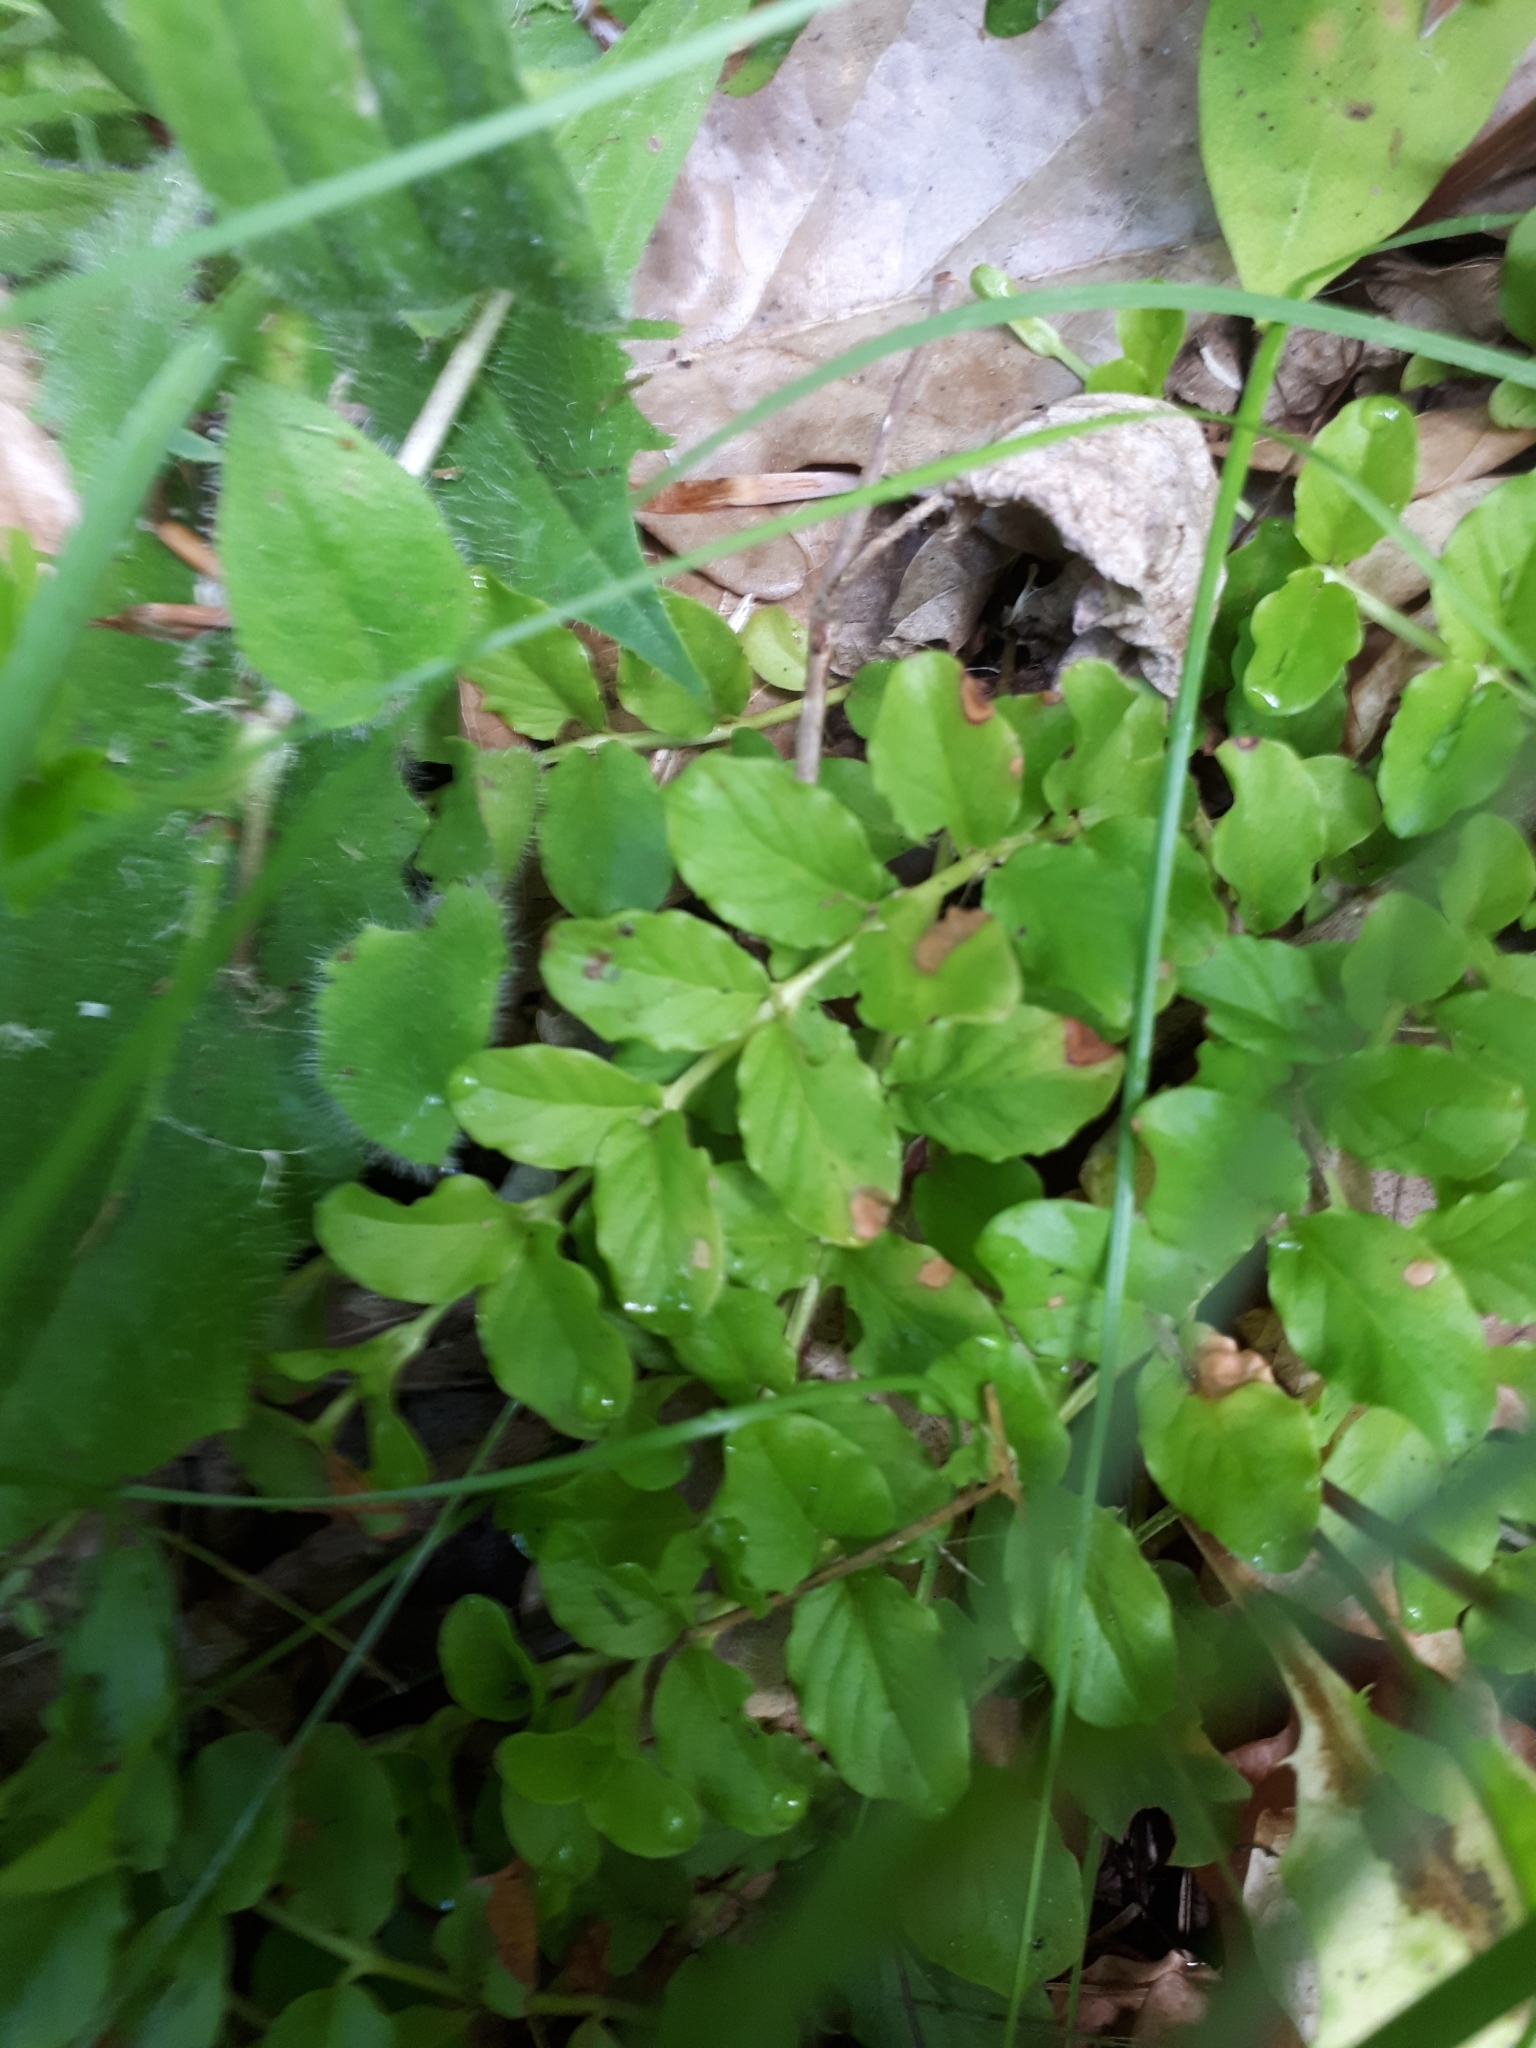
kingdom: Plantae
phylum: Tracheophyta
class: Magnoliopsida
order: Ericales
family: Primulaceae
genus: Lysimachia
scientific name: Lysimachia nummularia
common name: Moneywort
